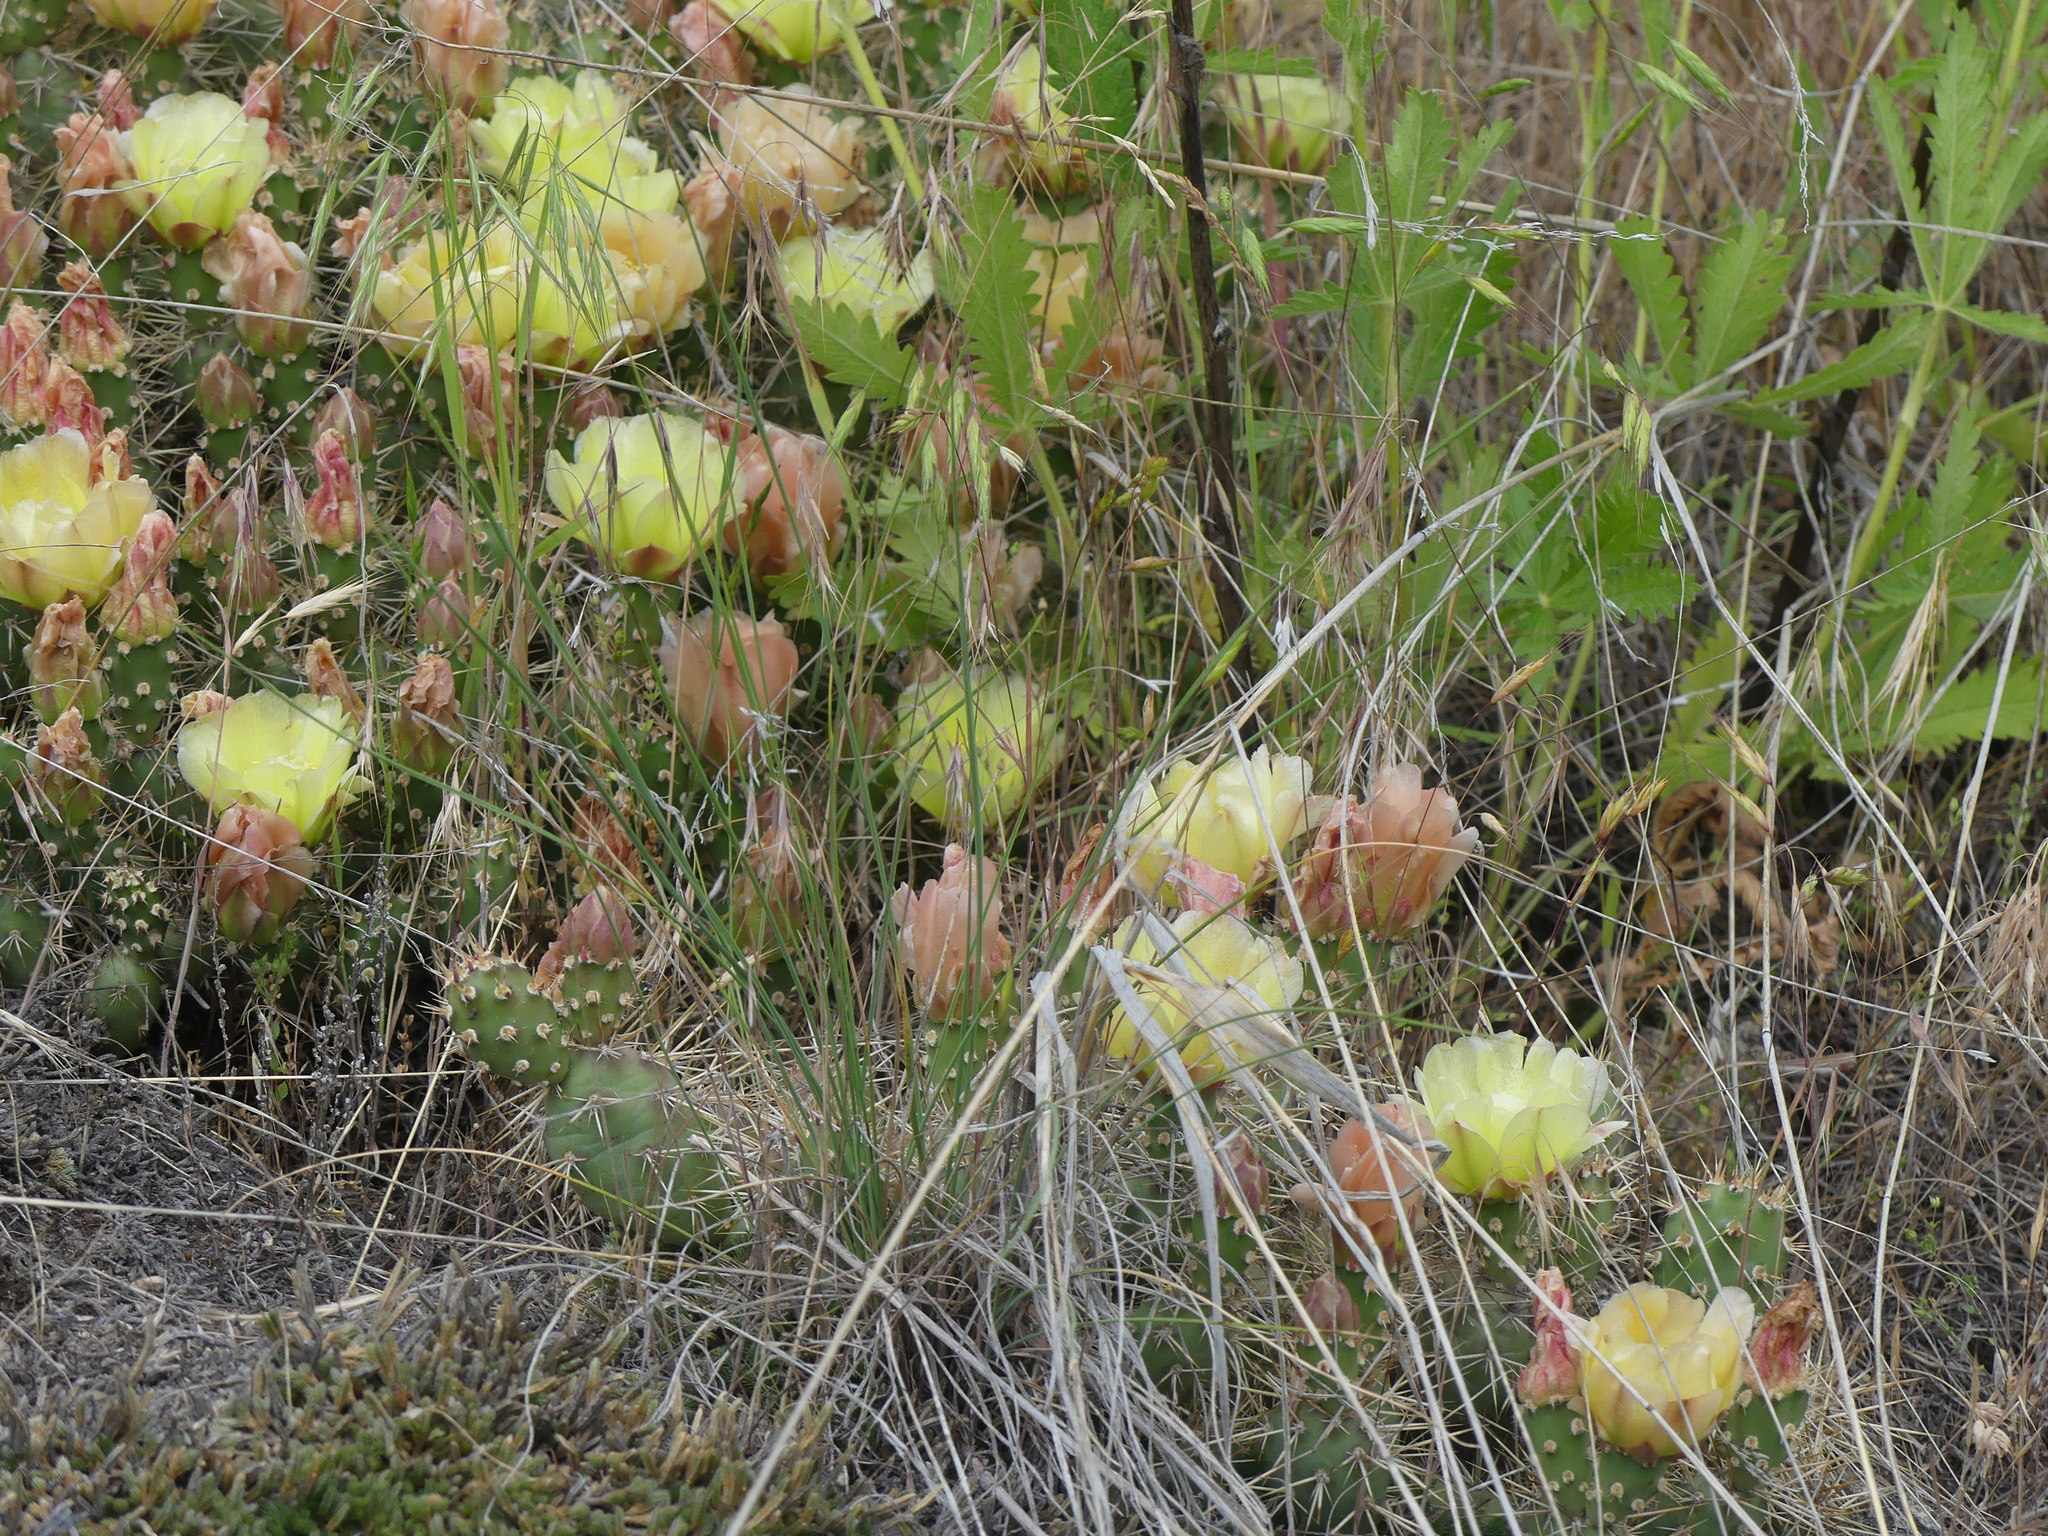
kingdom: Plantae
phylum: Tracheophyta
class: Magnoliopsida
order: Caryophyllales
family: Cactaceae
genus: Opuntia
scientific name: Opuntia fragilis
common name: Brittle cactus
